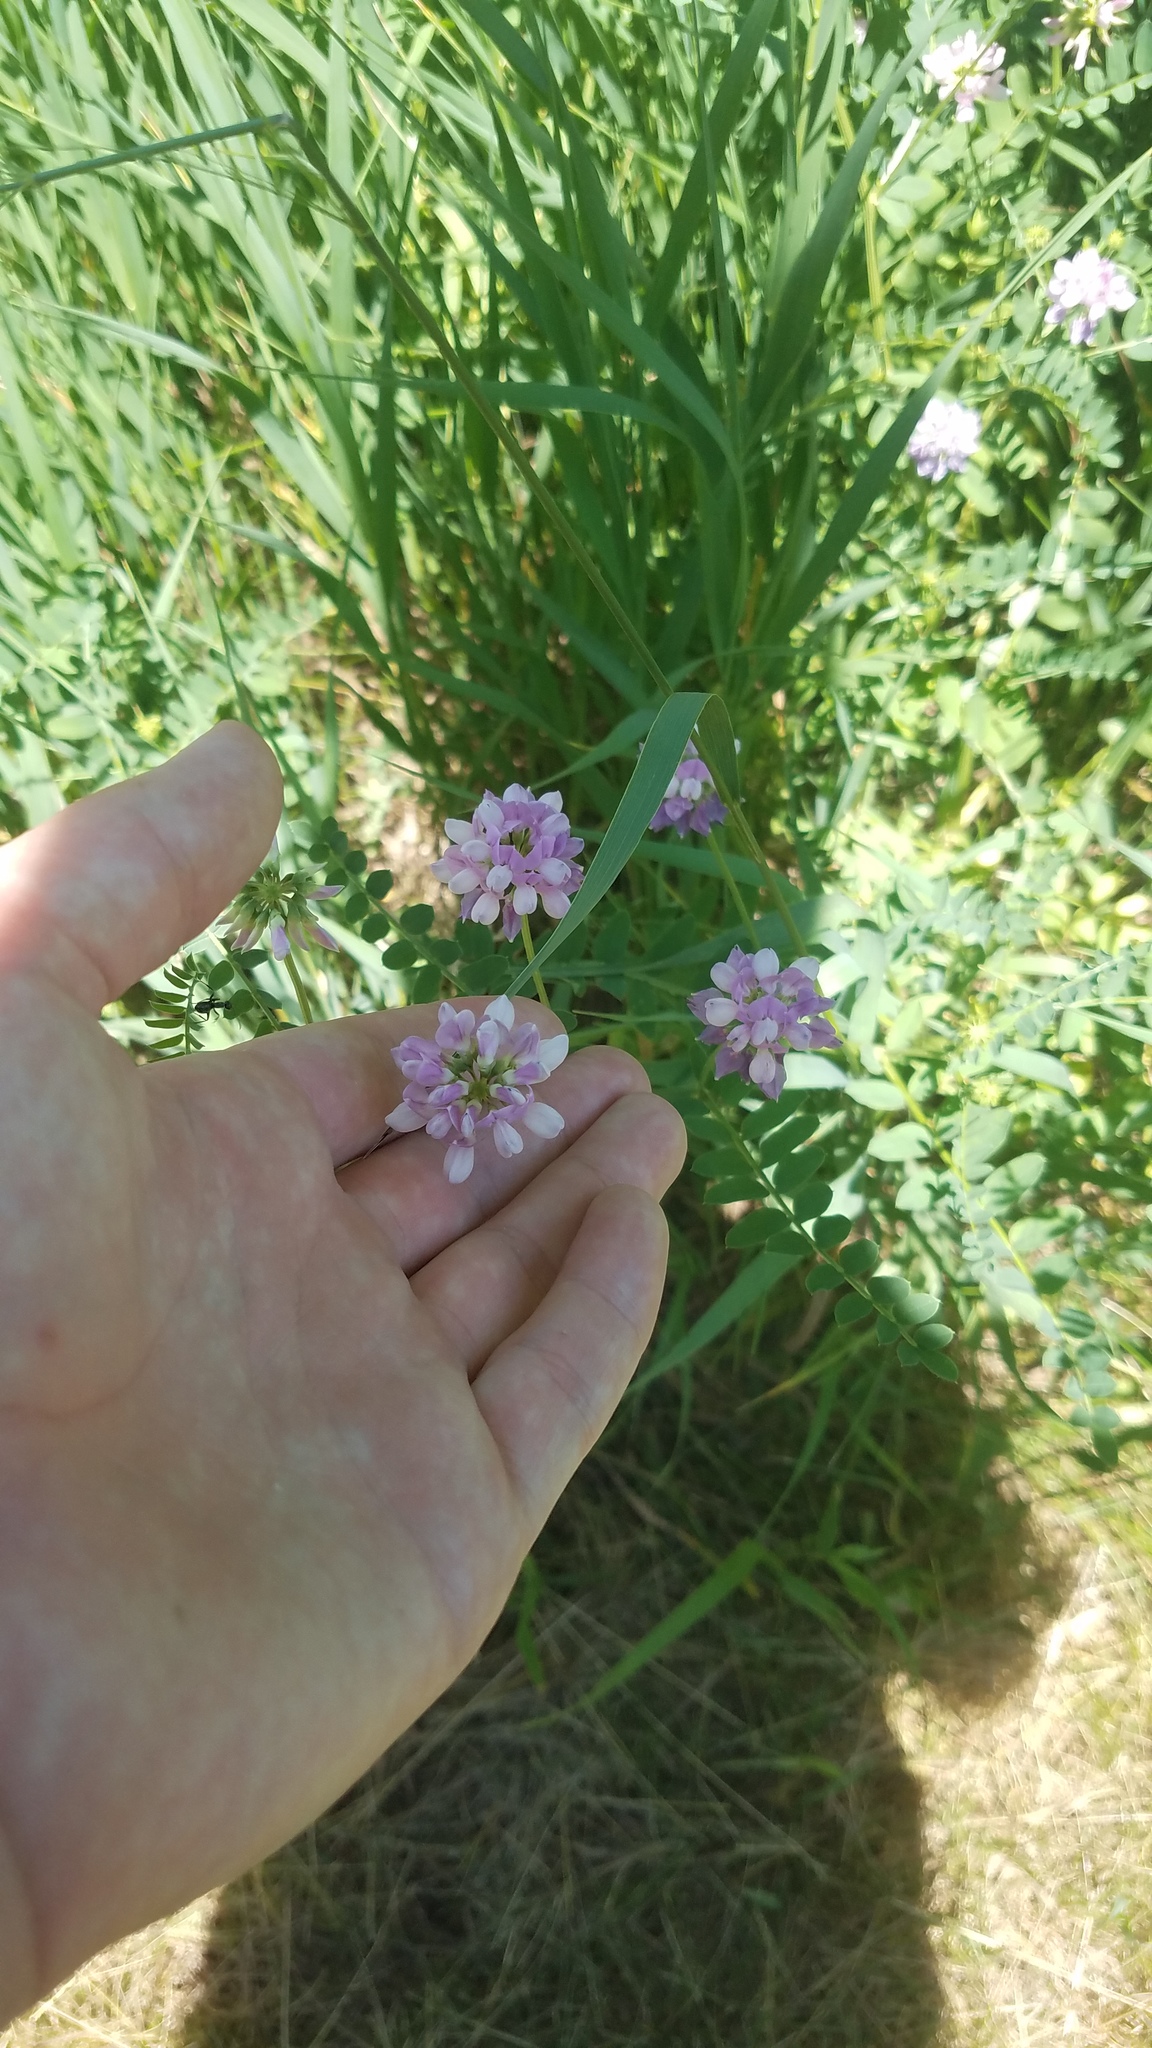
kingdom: Plantae
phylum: Tracheophyta
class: Magnoliopsida
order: Fabales
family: Fabaceae
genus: Coronilla
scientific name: Coronilla varia
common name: Crownvetch
